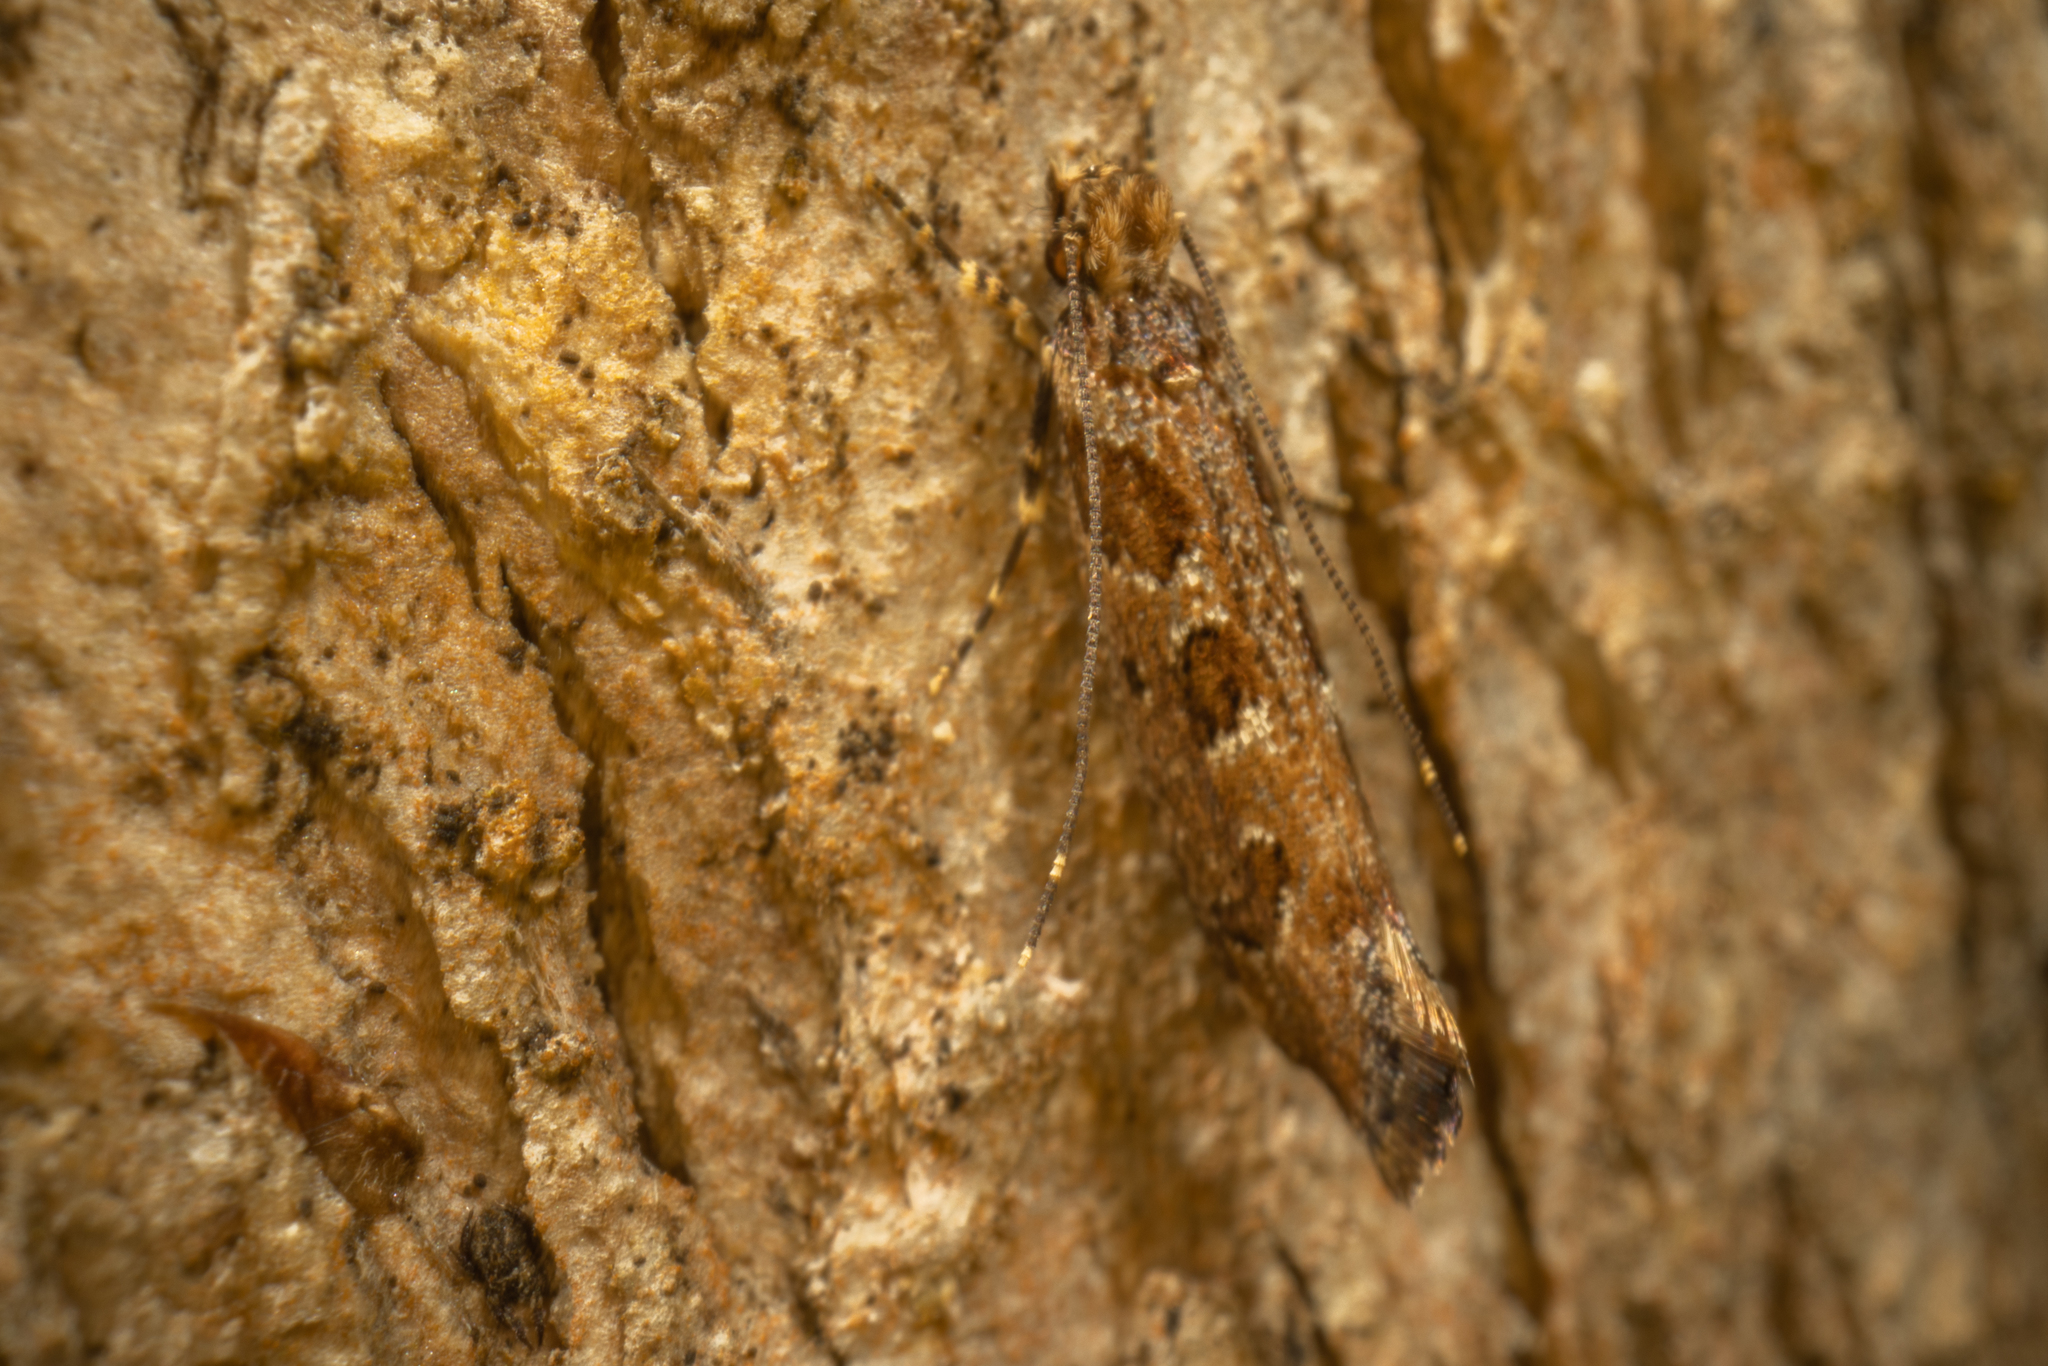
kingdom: Animalia
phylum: Arthropoda
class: Insecta
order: Lepidoptera
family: Tineidae
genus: Erechthias
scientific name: Erechthias capnitis
